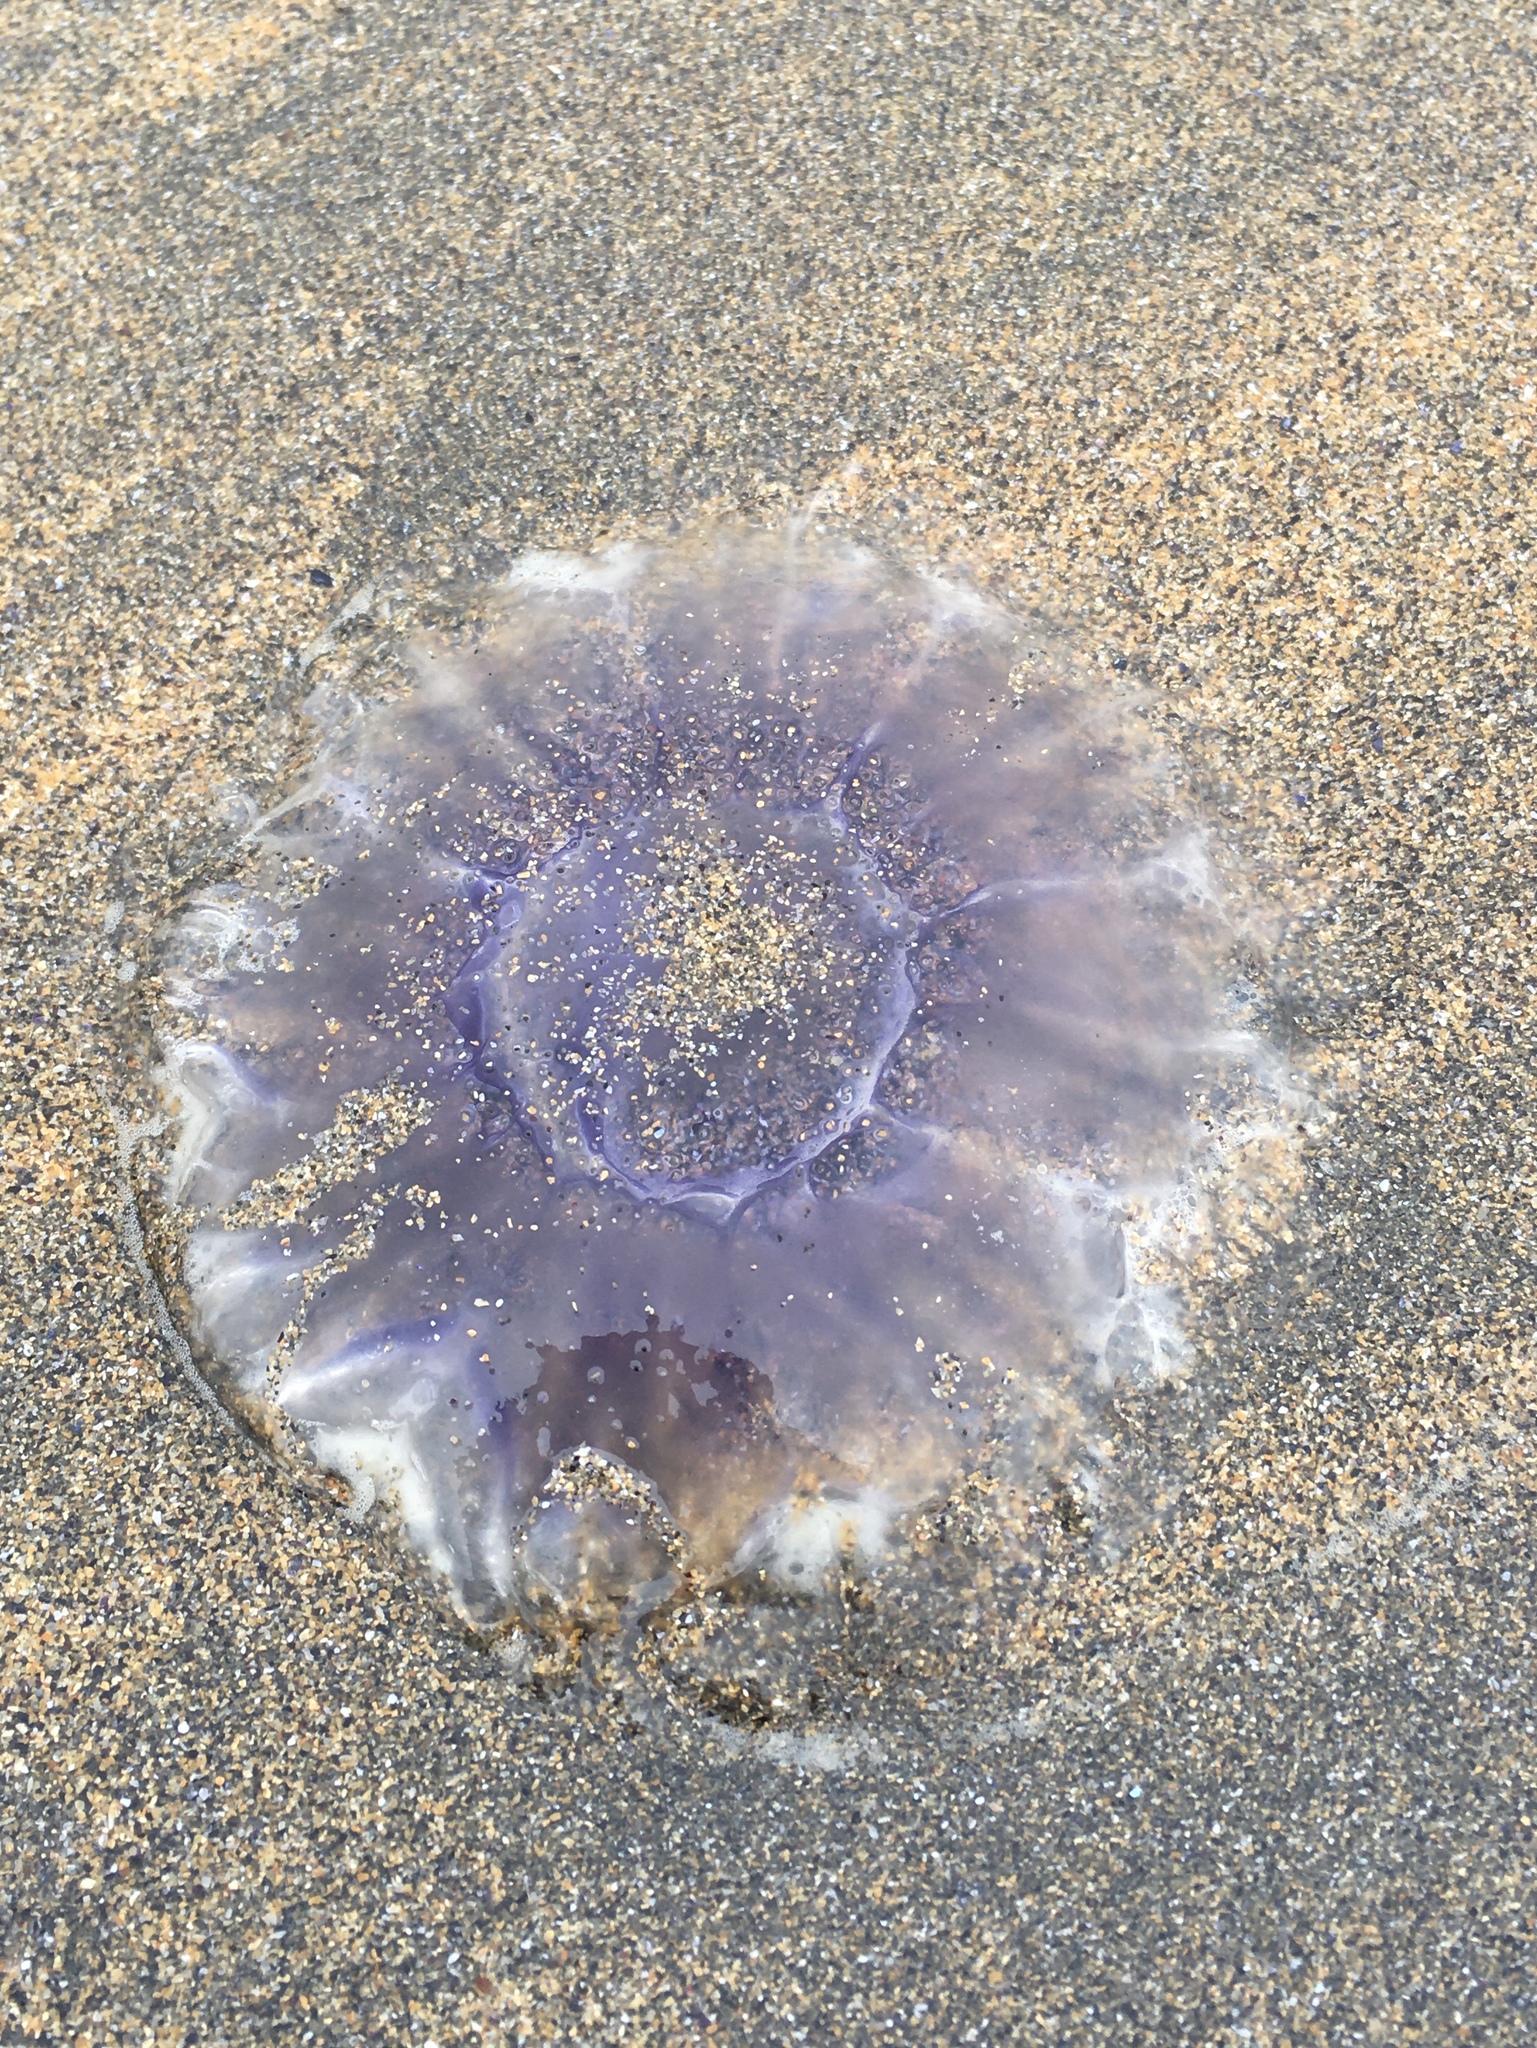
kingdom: Animalia
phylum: Cnidaria
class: Scyphozoa
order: Semaeostomeae
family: Cyaneidae
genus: Cyanea
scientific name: Cyanea lamarckii
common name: Blue jellyfish
